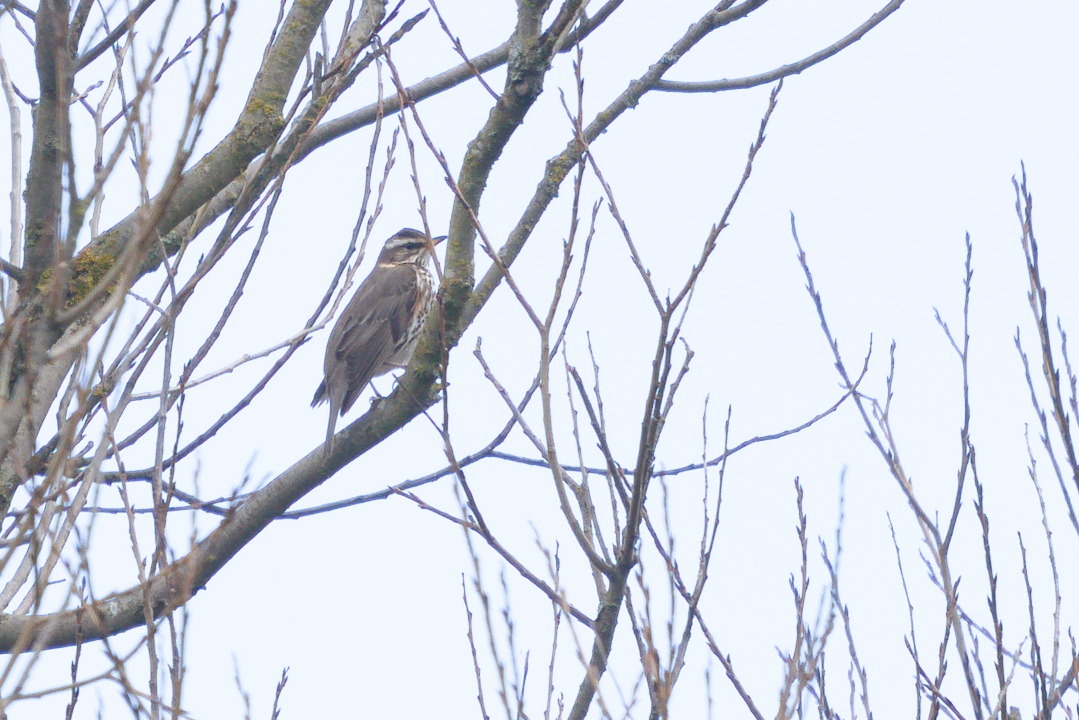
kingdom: Animalia
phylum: Chordata
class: Aves
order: Passeriformes
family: Turdidae
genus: Turdus
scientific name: Turdus iliacus
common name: Redwing
